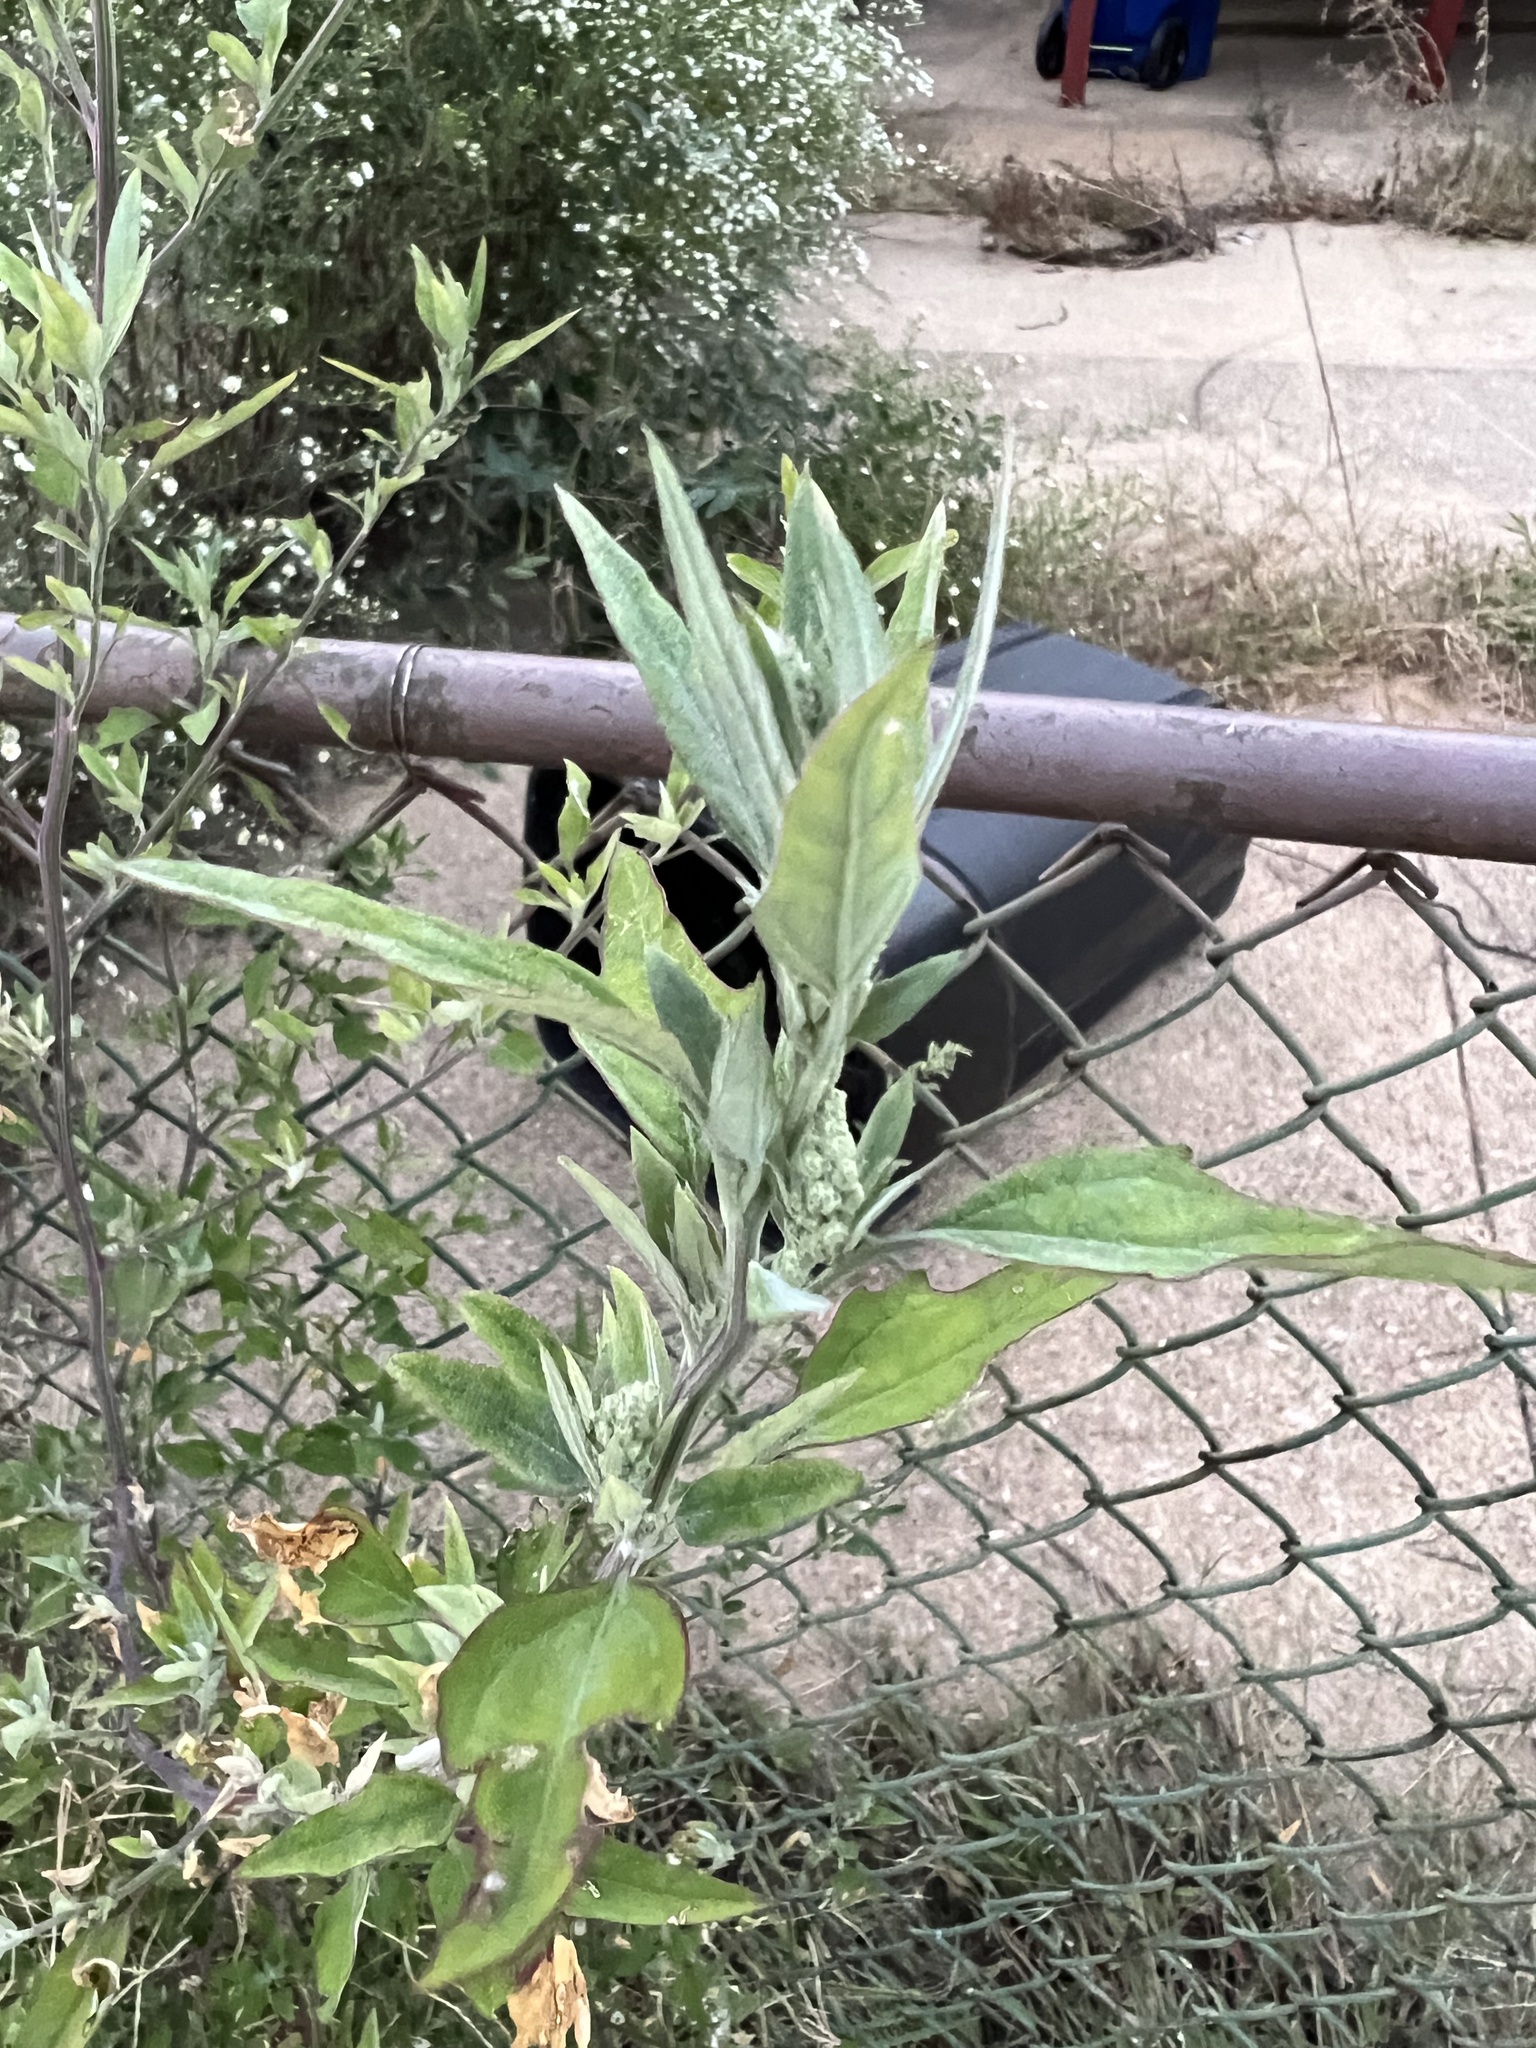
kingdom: Plantae
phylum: Tracheophyta
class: Magnoliopsida
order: Caryophyllales
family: Amaranthaceae
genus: Chenopodium
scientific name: Chenopodium album
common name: Fat-hen
